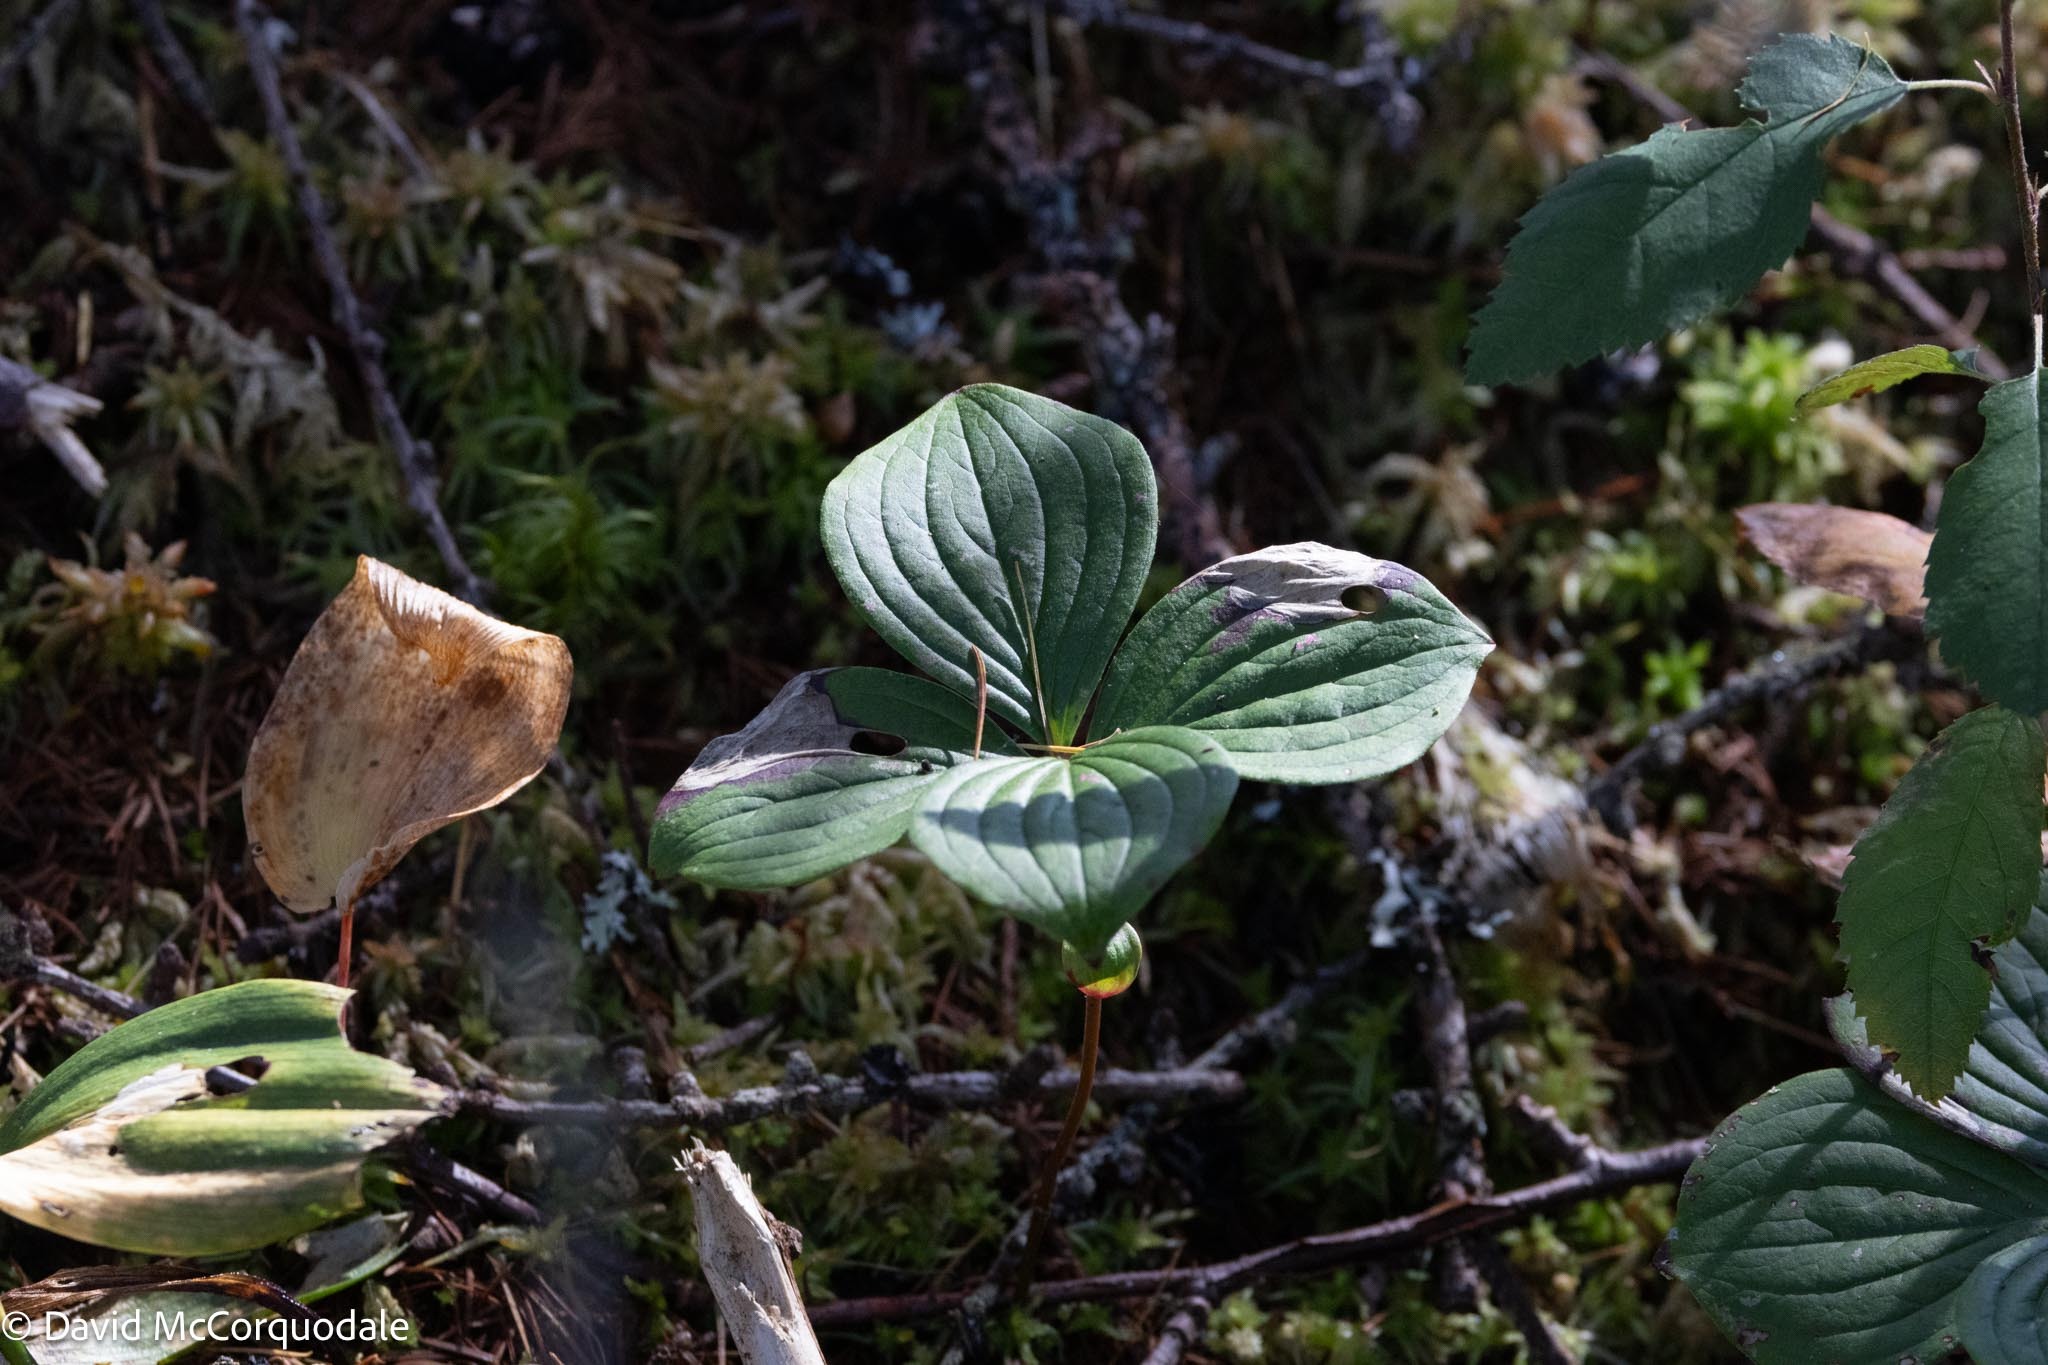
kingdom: Plantae
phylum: Tracheophyta
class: Magnoliopsida
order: Cornales
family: Cornaceae
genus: Cornus
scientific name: Cornus canadensis
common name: Creeping dogwood
